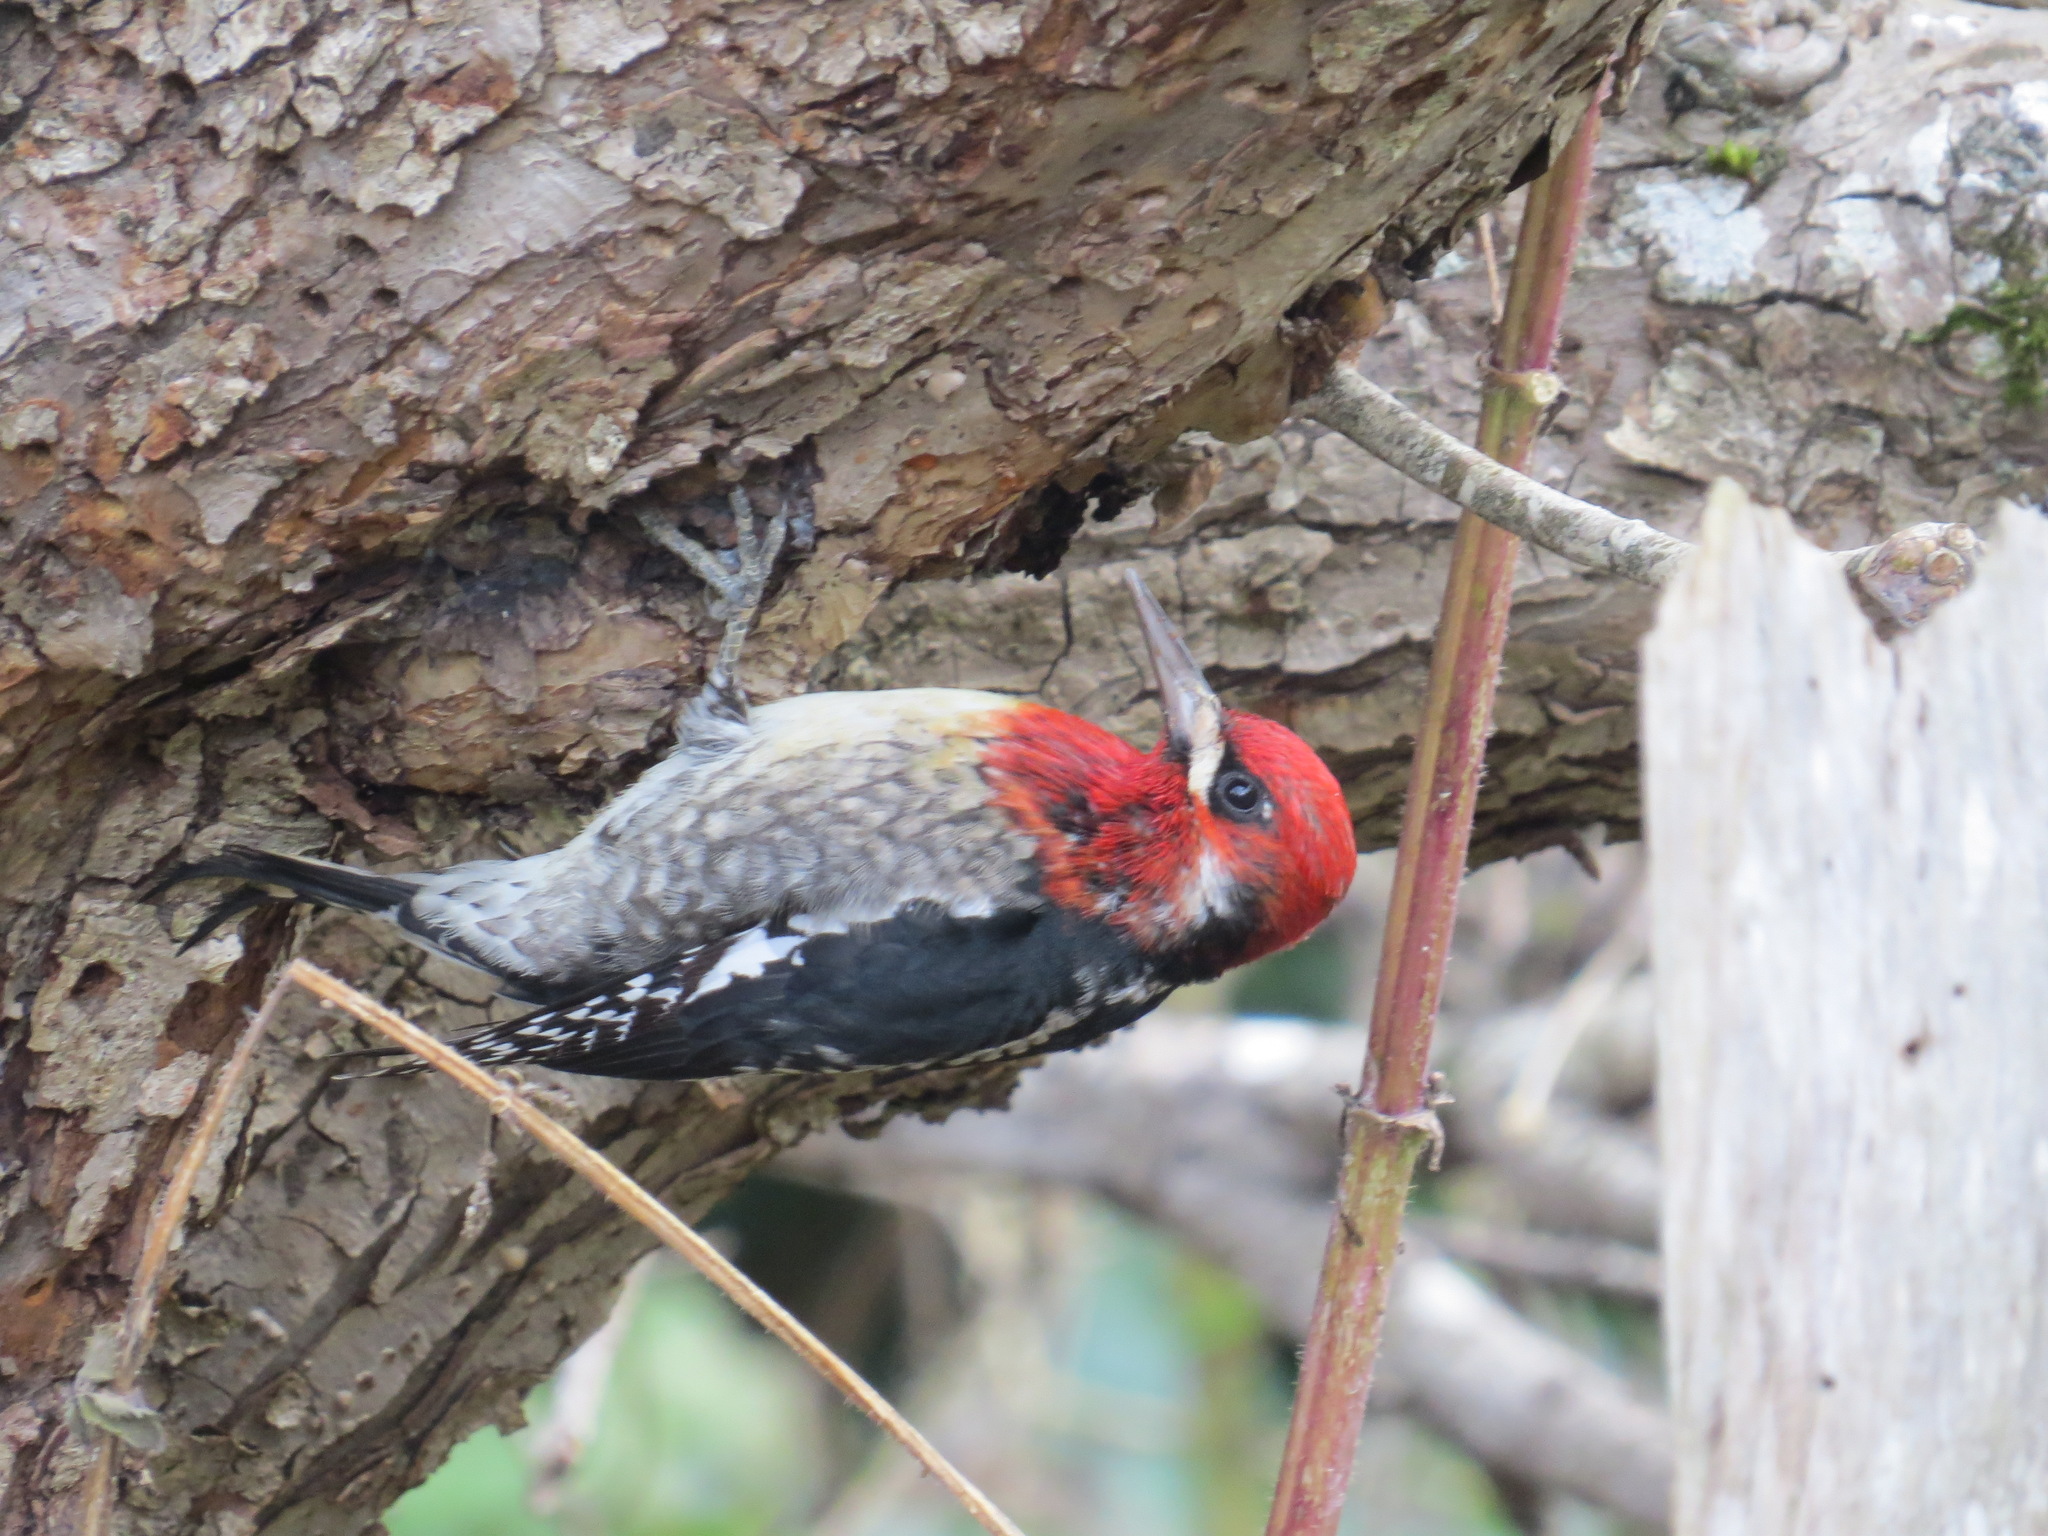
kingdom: Animalia
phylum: Chordata
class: Aves
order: Piciformes
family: Picidae
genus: Sphyrapicus
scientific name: Sphyrapicus ruber
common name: Red-breasted sapsucker
